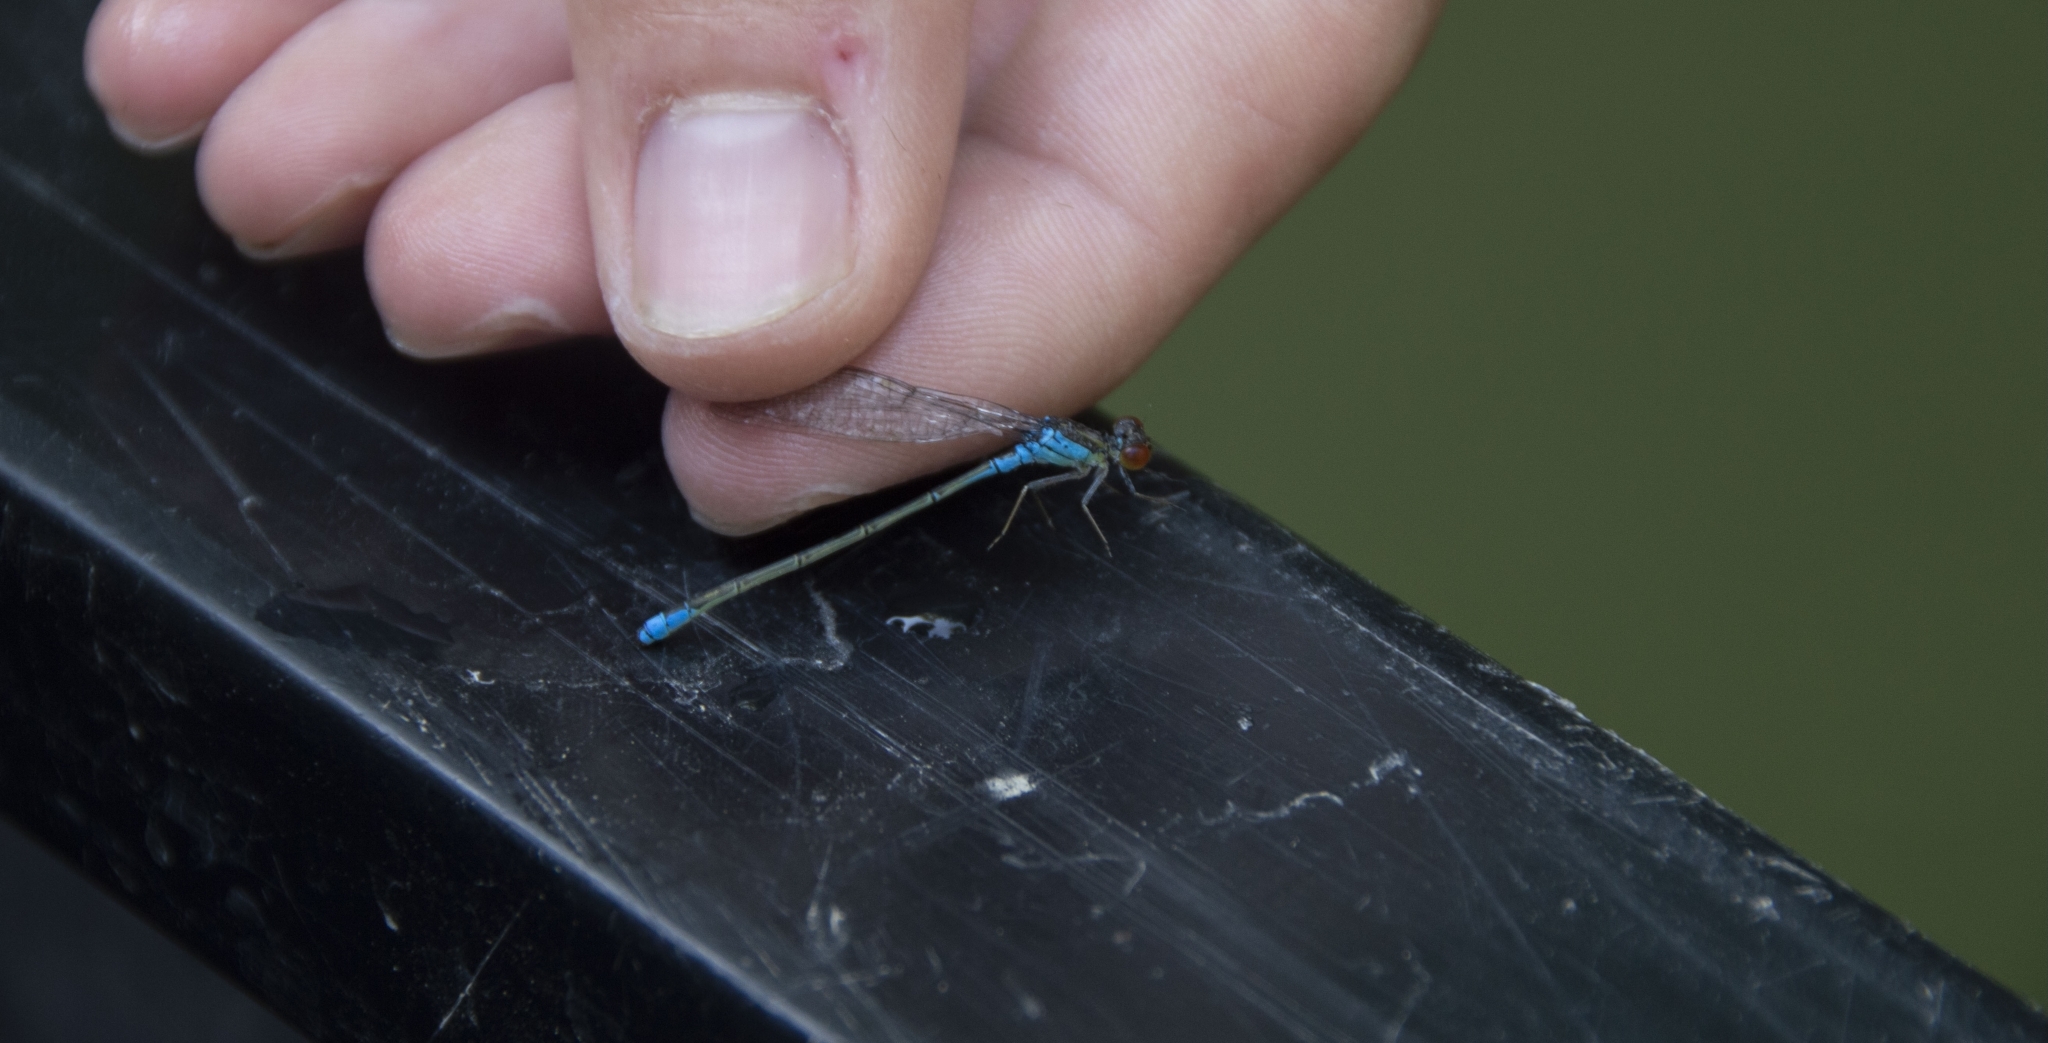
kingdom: Animalia
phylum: Arthropoda
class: Insecta
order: Odonata
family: Coenagrionidae
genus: Erythromma
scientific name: Erythromma viridulum
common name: Small red-eyed damselfly
